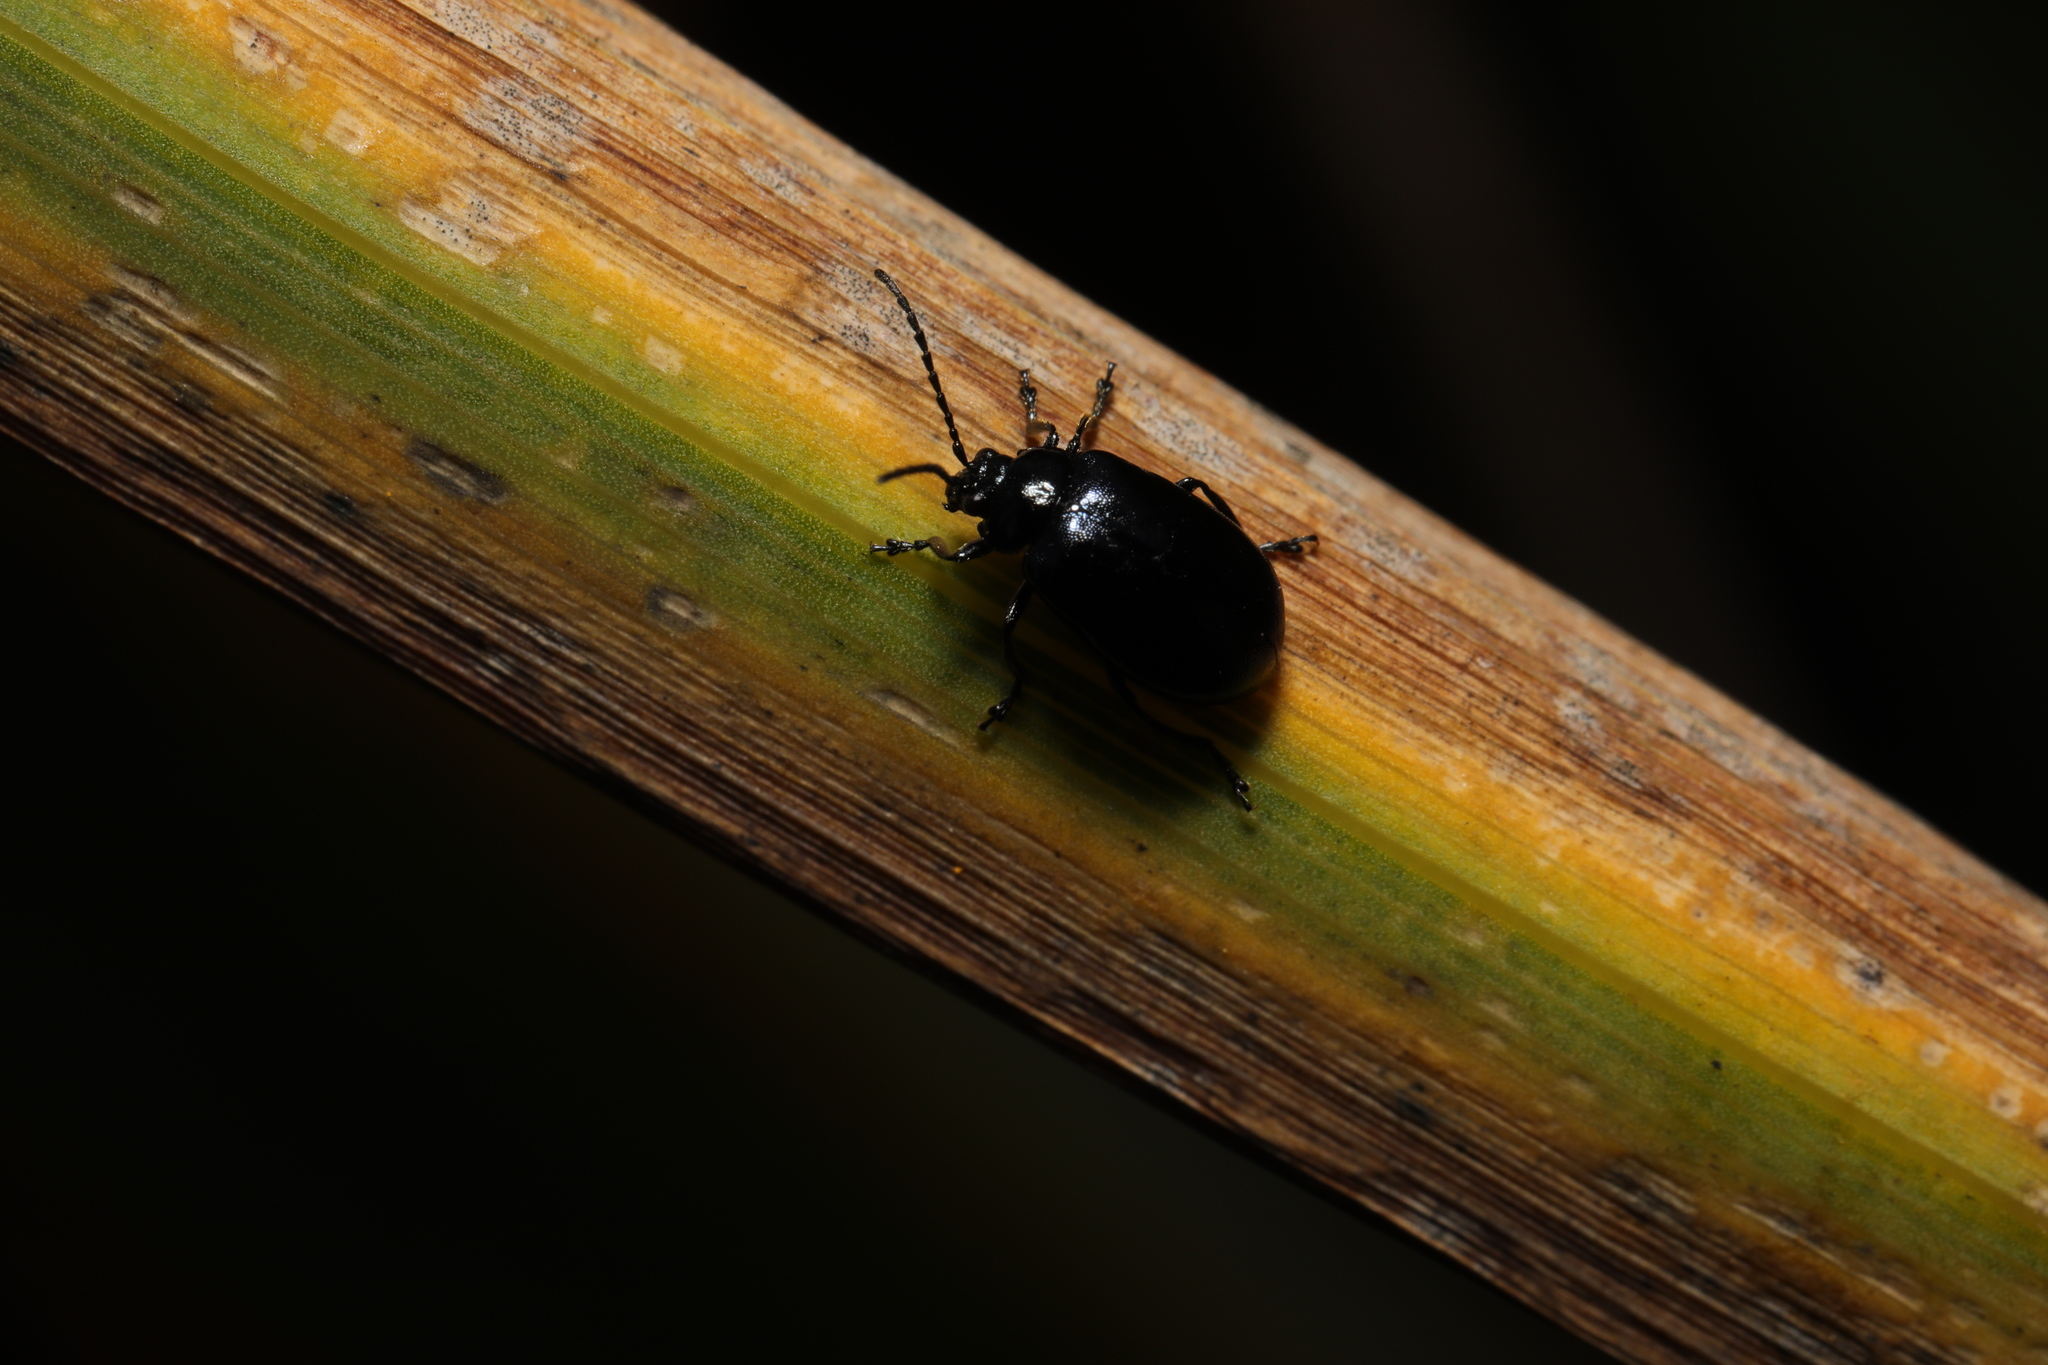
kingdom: Animalia
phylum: Arthropoda
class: Insecta
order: Coleoptera
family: Chrysomelidae
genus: Agelastica
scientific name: Agelastica alni
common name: Alder leaf beetle
